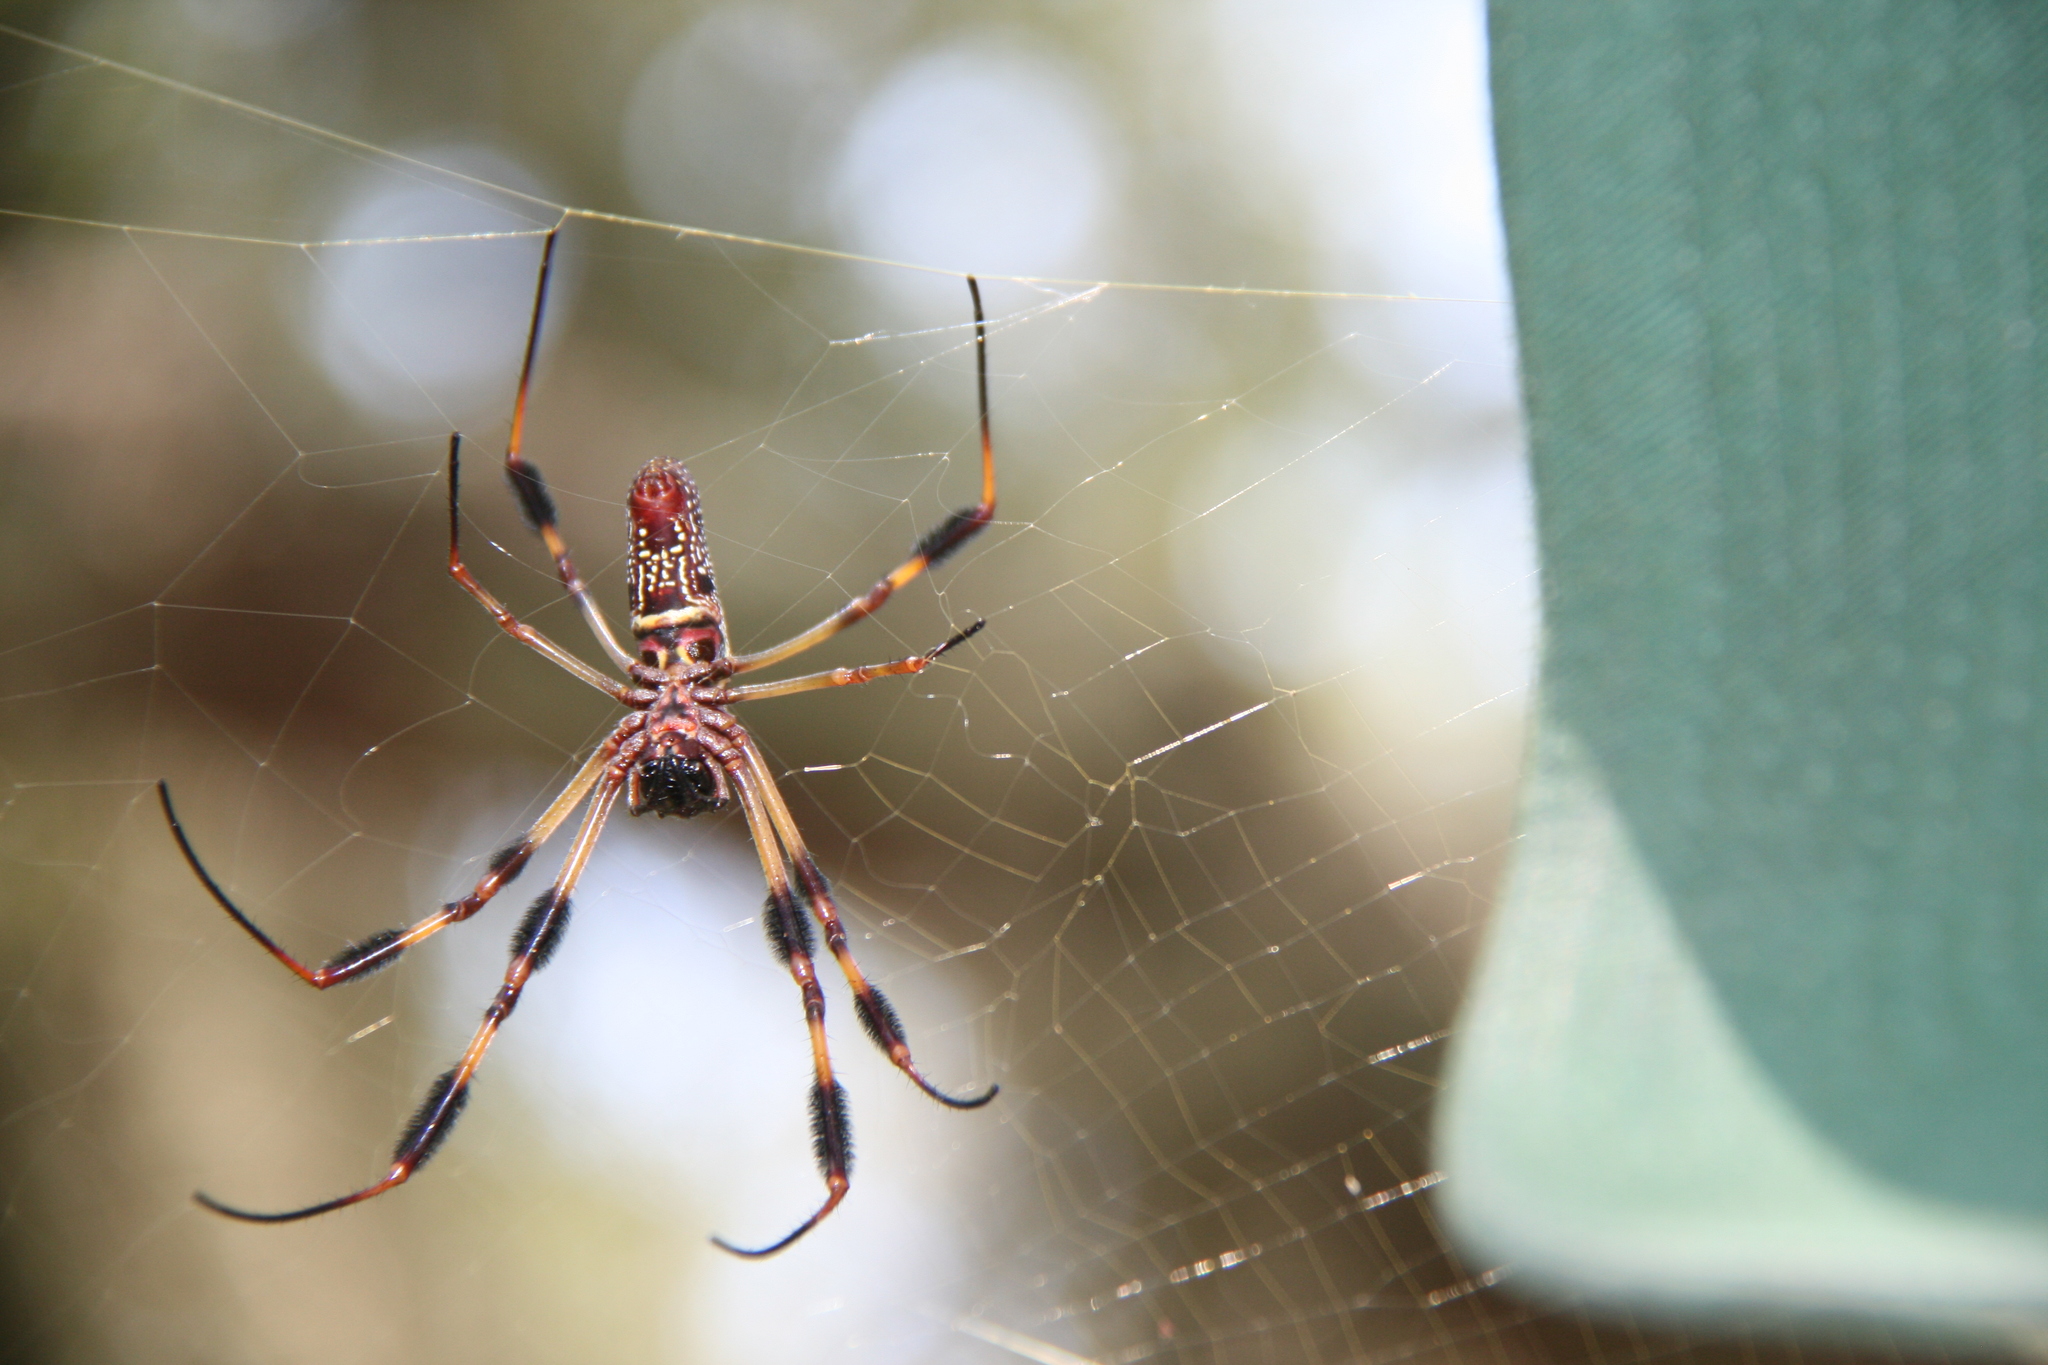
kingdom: Animalia
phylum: Arthropoda
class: Arachnida
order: Araneae
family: Araneidae
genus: Trichonephila
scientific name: Trichonephila clavipes
